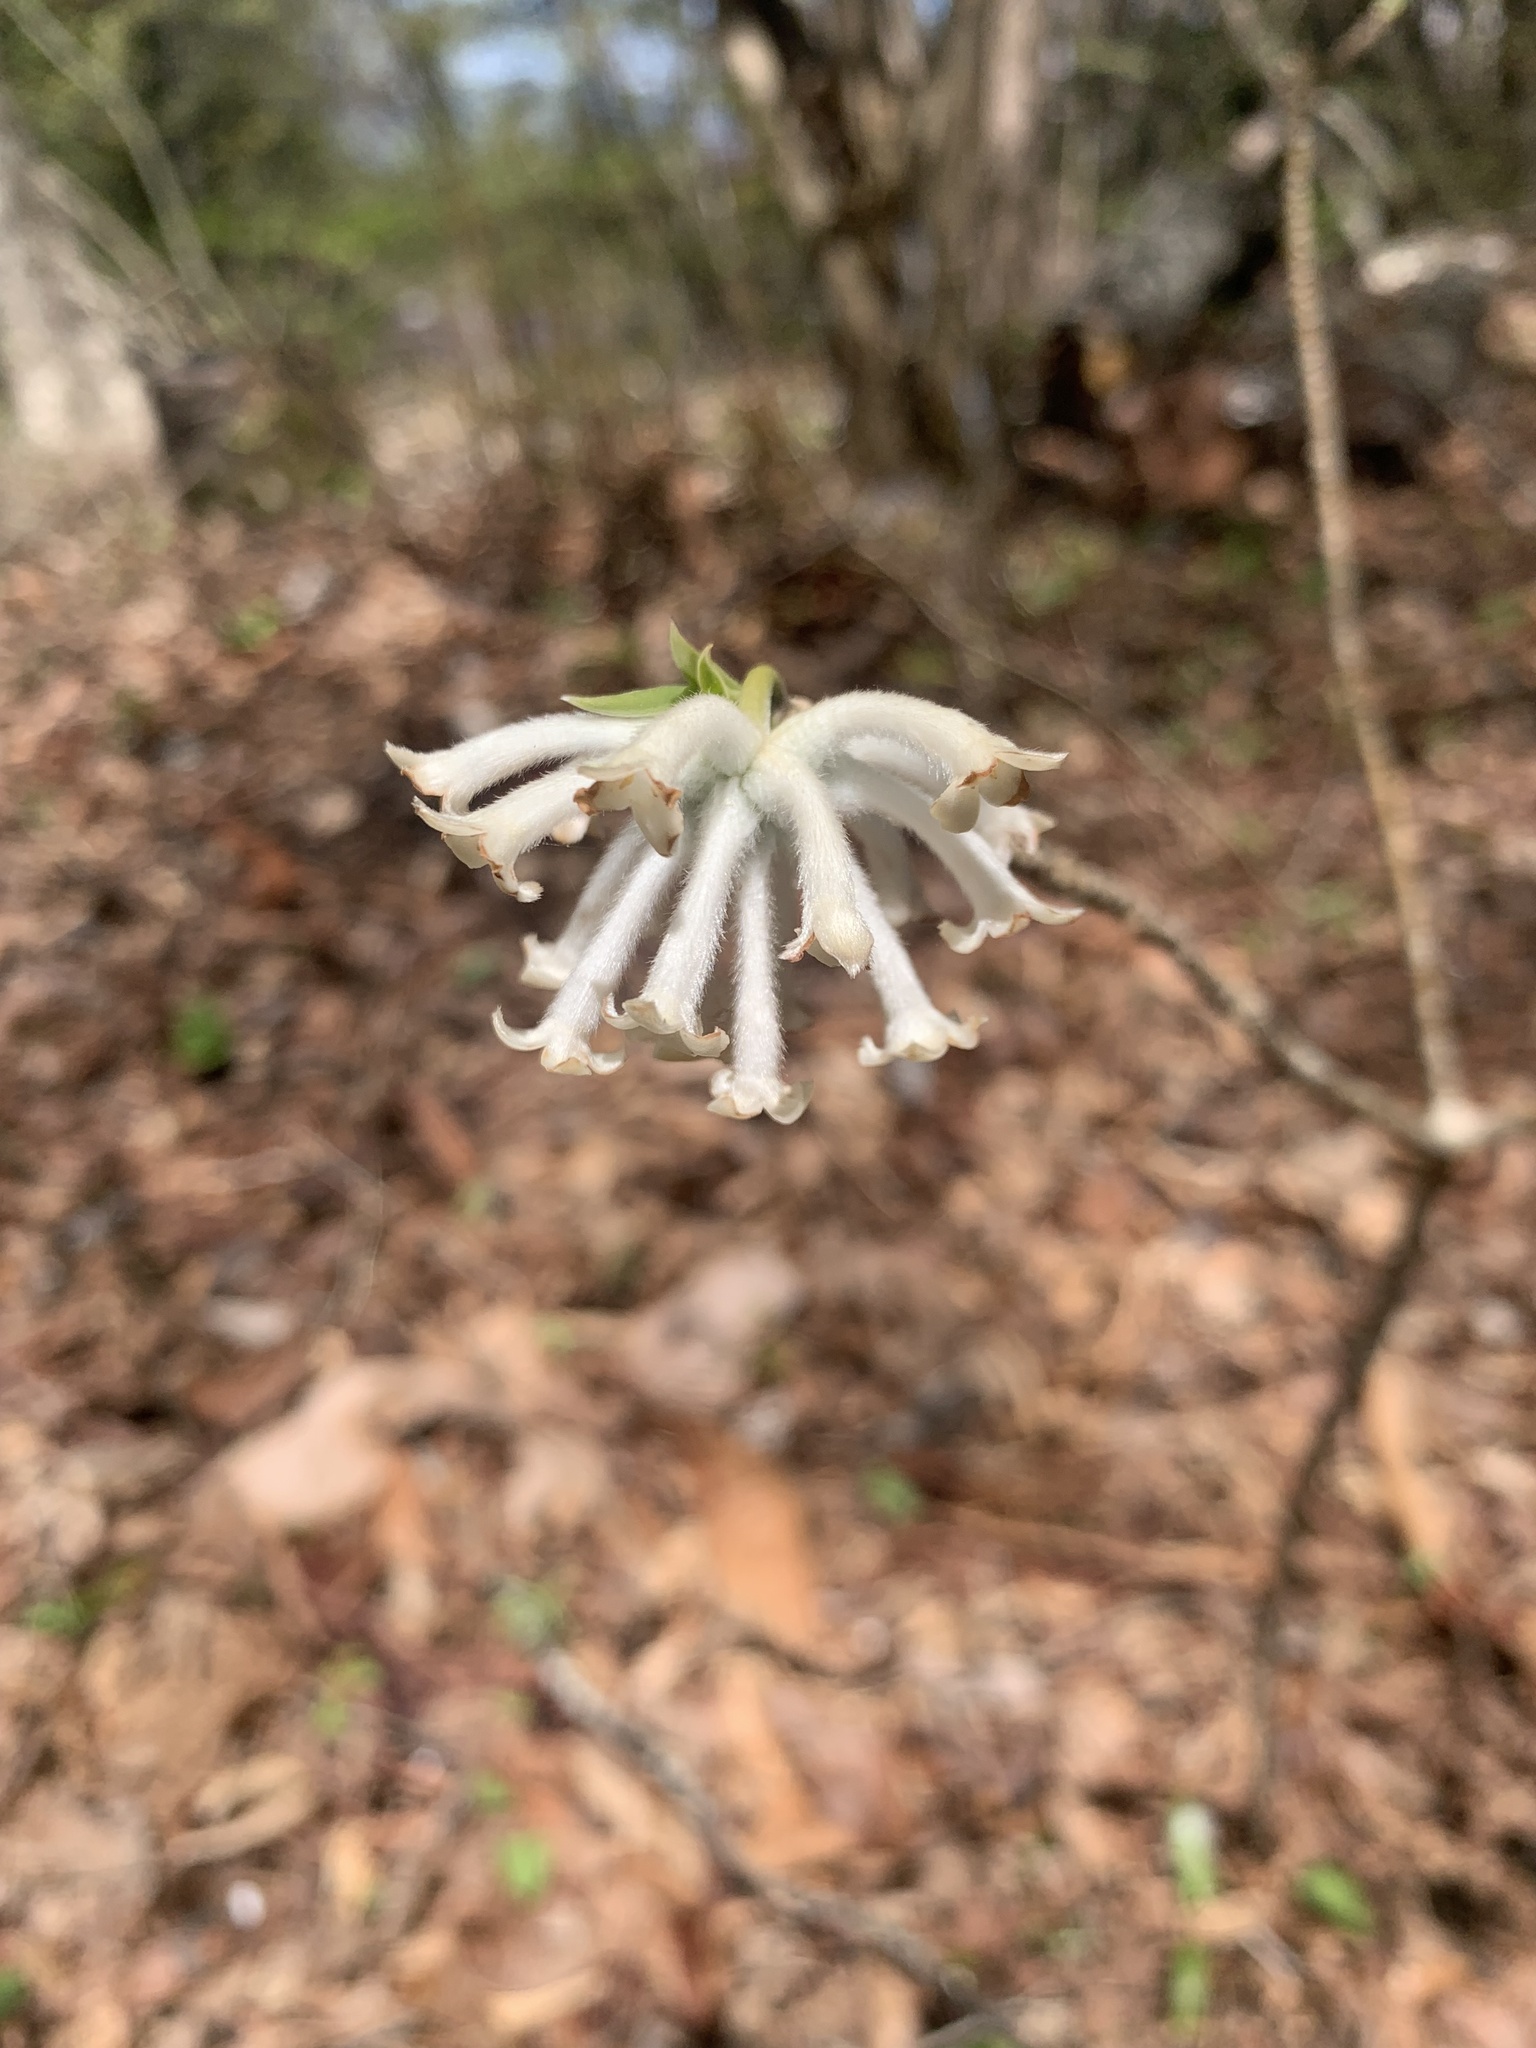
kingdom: Plantae
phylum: Tracheophyta
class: Magnoliopsida
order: Malvales
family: Thymelaeaceae
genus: Edgeworthia
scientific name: Edgeworthia chrysantha
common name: Oriental paperbush
